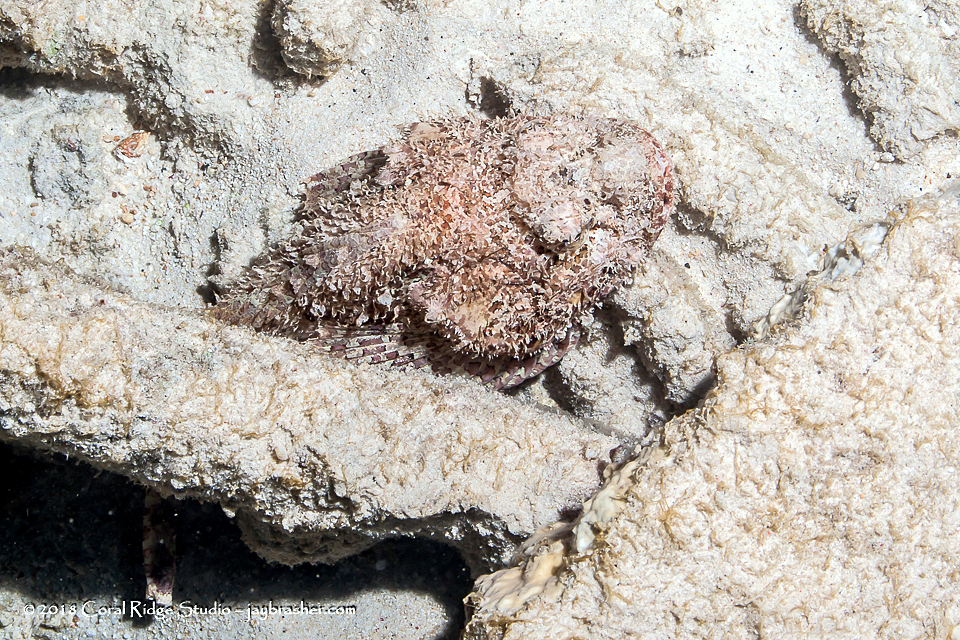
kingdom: Animalia
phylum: Chordata
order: Scorpaeniformes
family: Scorpaenidae
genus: Scorpaena
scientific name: Scorpaena plumieri
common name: Spotted scorpionfish
